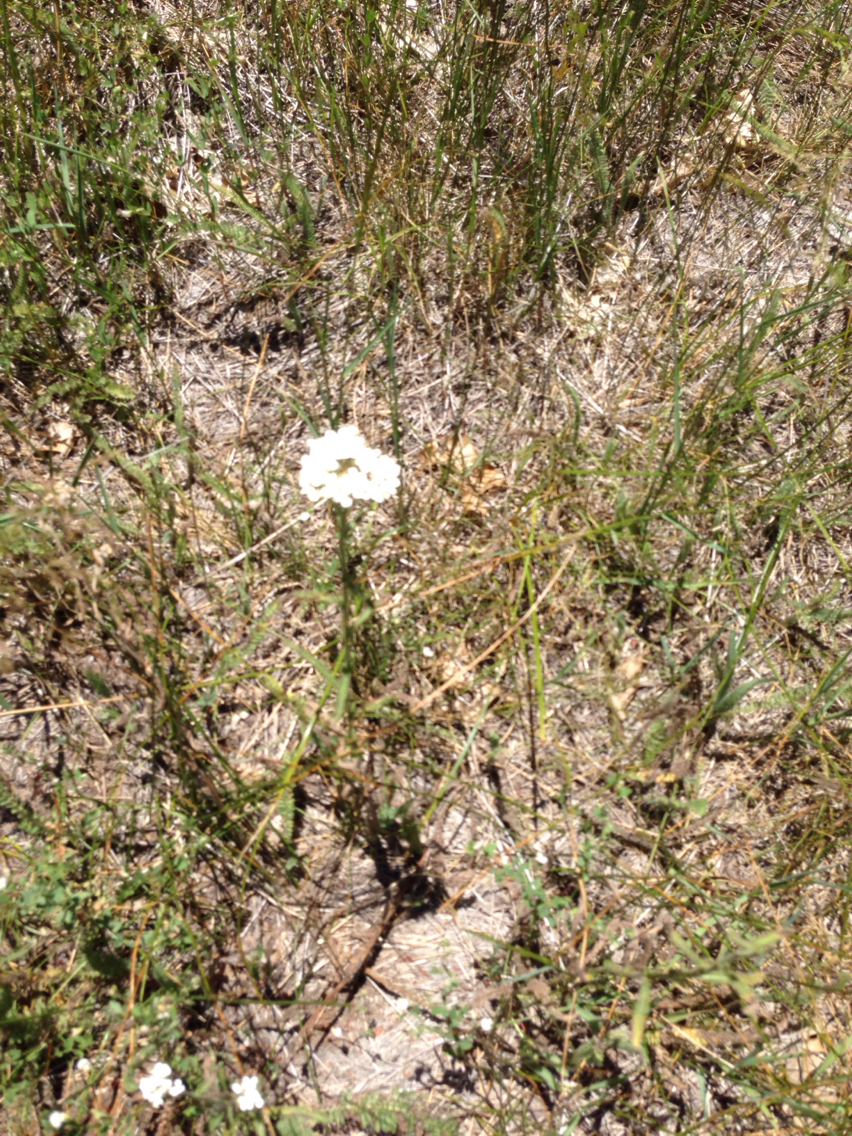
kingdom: Plantae
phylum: Tracheophyta
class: Magnoliopsida
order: Asterales
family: Asteraceae
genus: Achillea
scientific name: Achillea millefolium
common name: Yarrow
